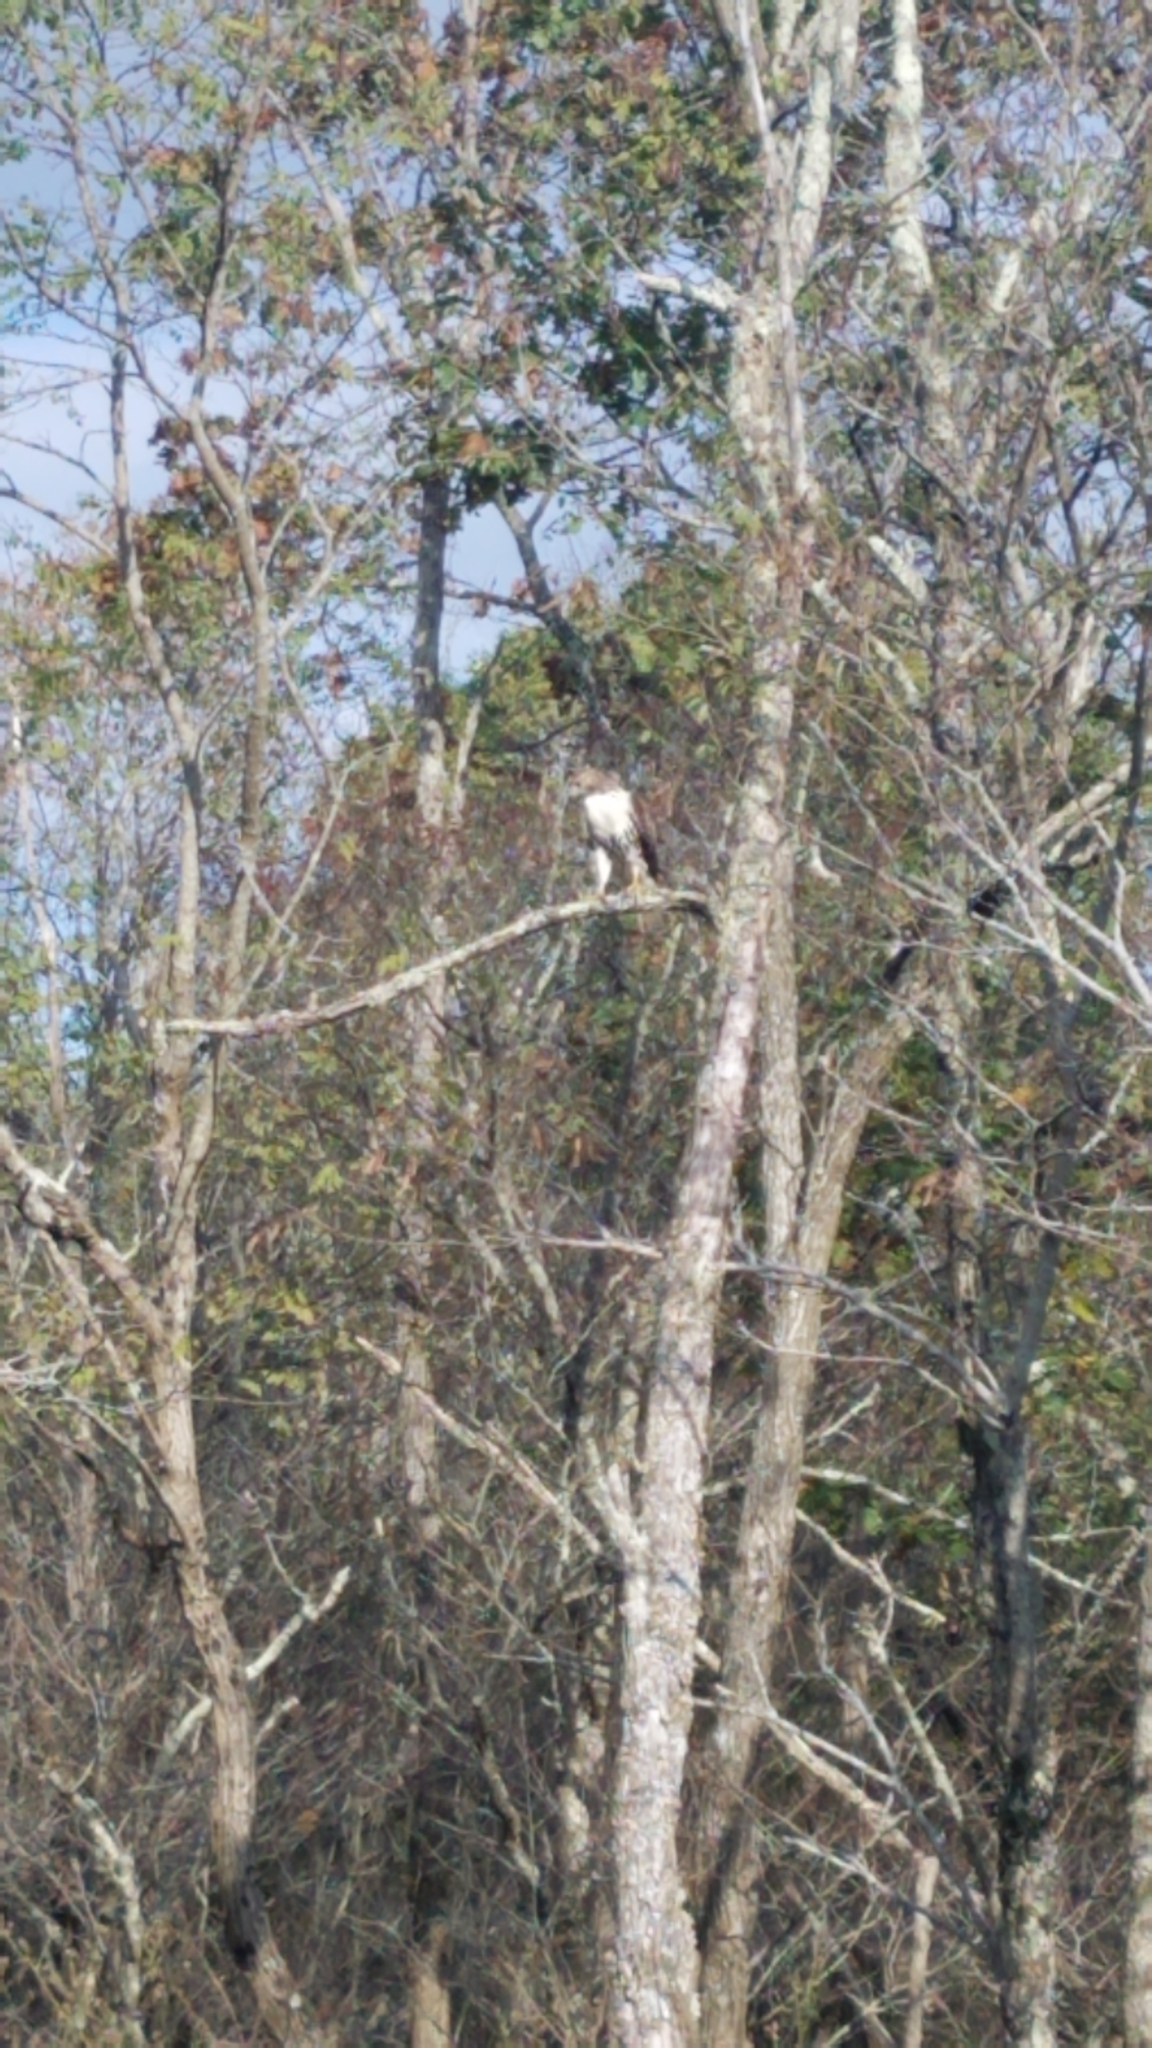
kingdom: Animalia
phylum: Chordata
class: Aves
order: Accipitriformes
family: Accipitridae
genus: Buteo
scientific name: Buteo jamaicensis
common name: Red-tailed hawk
